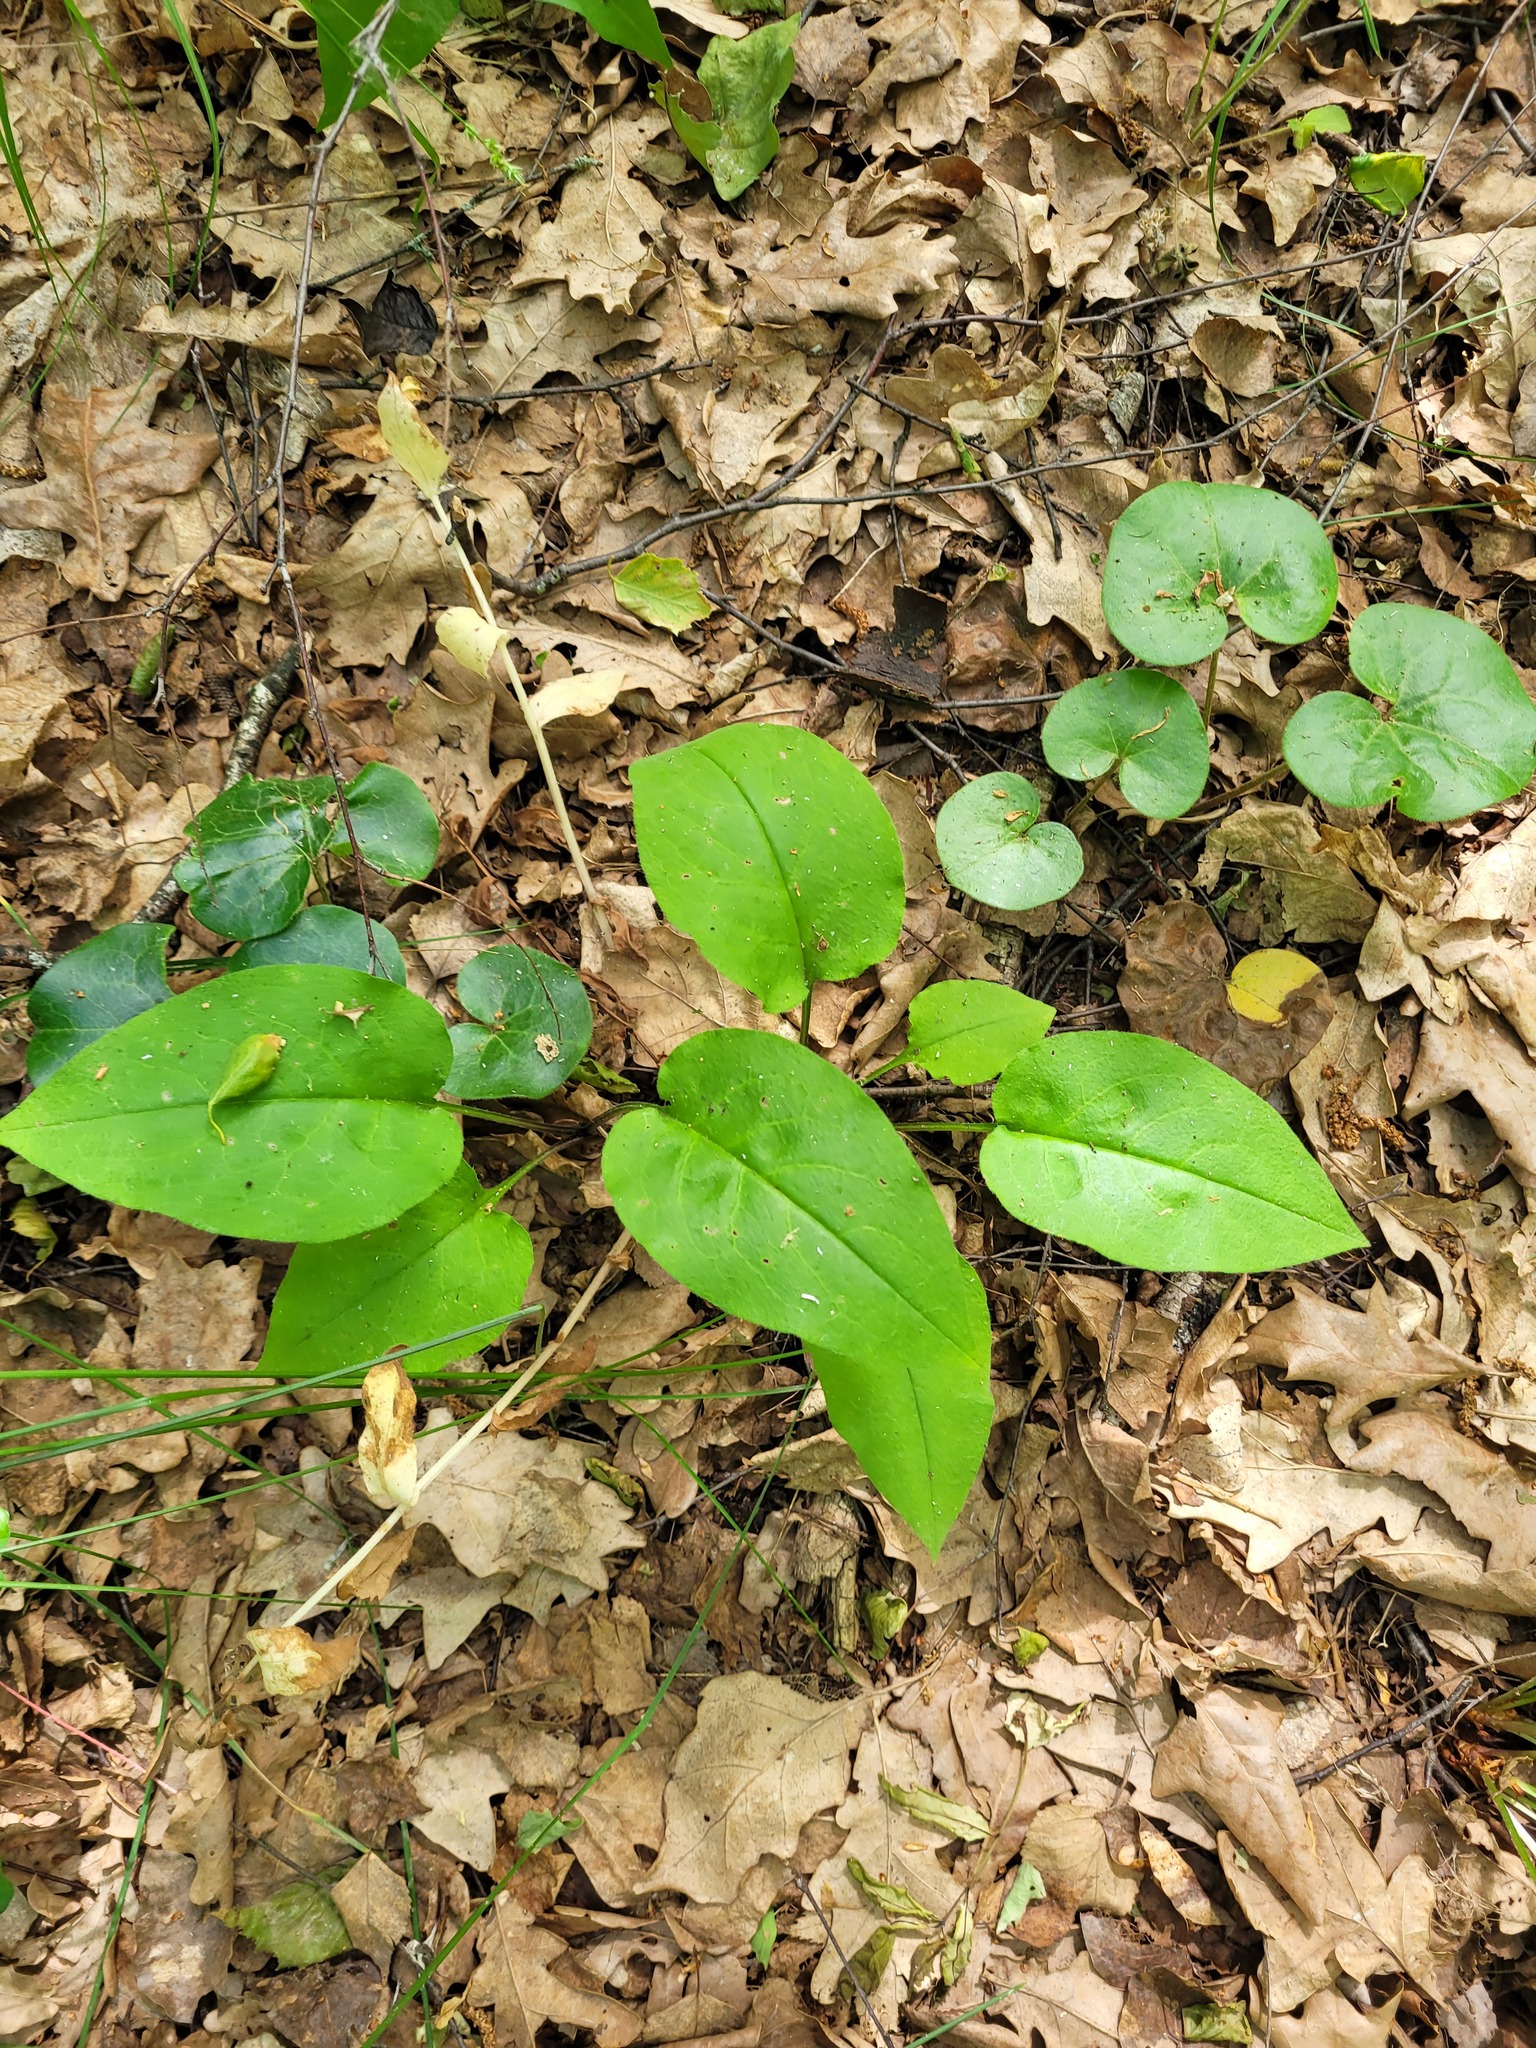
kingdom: Plantae
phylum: Tracheophyta
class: Magnoliopsida
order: Boraginales
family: Boraginaceae
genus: Pulmonaria
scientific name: Pulmonaria obscura
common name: Suffolk lungwort
